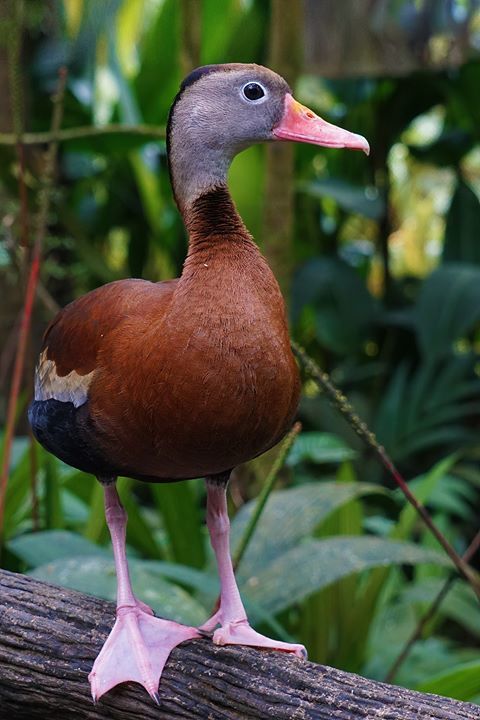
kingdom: Animalia
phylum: Chordata
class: Aves
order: Anseriformes
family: Anatidae
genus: Dendrocygna
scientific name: Dendrocygna autumnalis
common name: Black-bellied whistling duck
